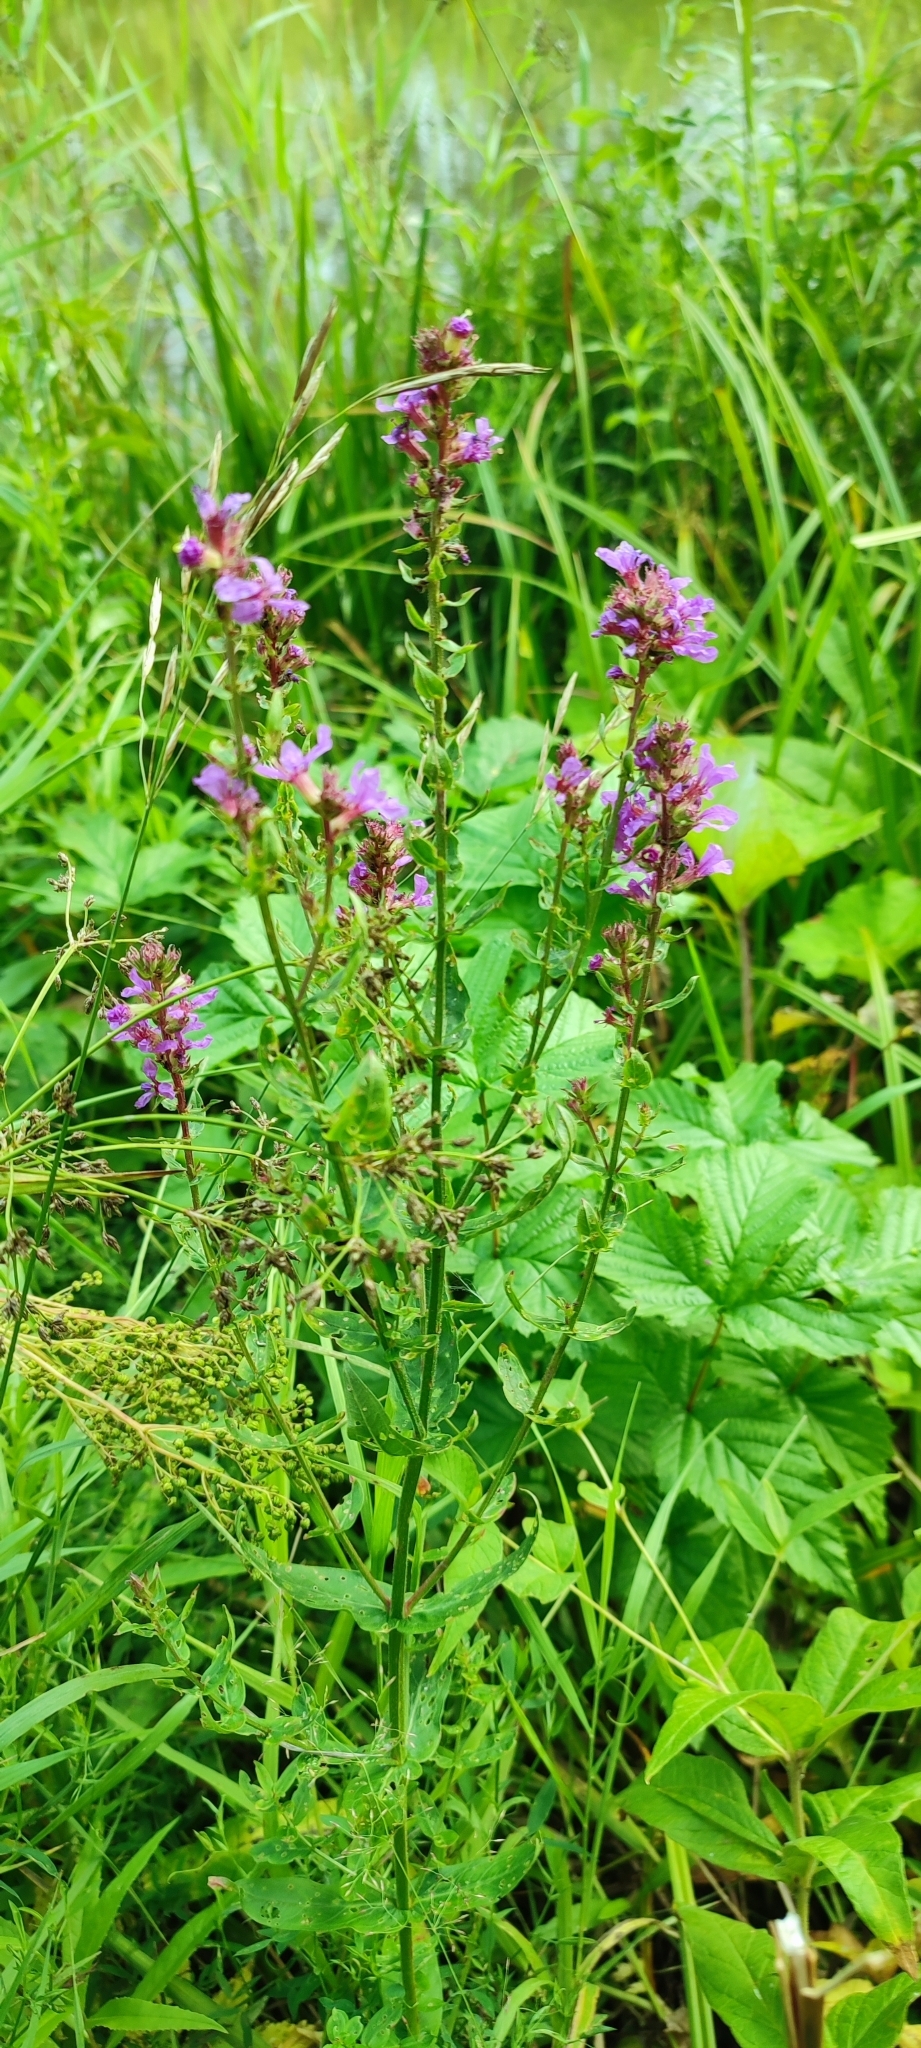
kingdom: Plantae
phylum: Tracheophyta
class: Magnoliopsida
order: Myrtales
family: Lythraceae
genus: Lythrum
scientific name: Lythrum salicaria
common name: Purple loosestrife
